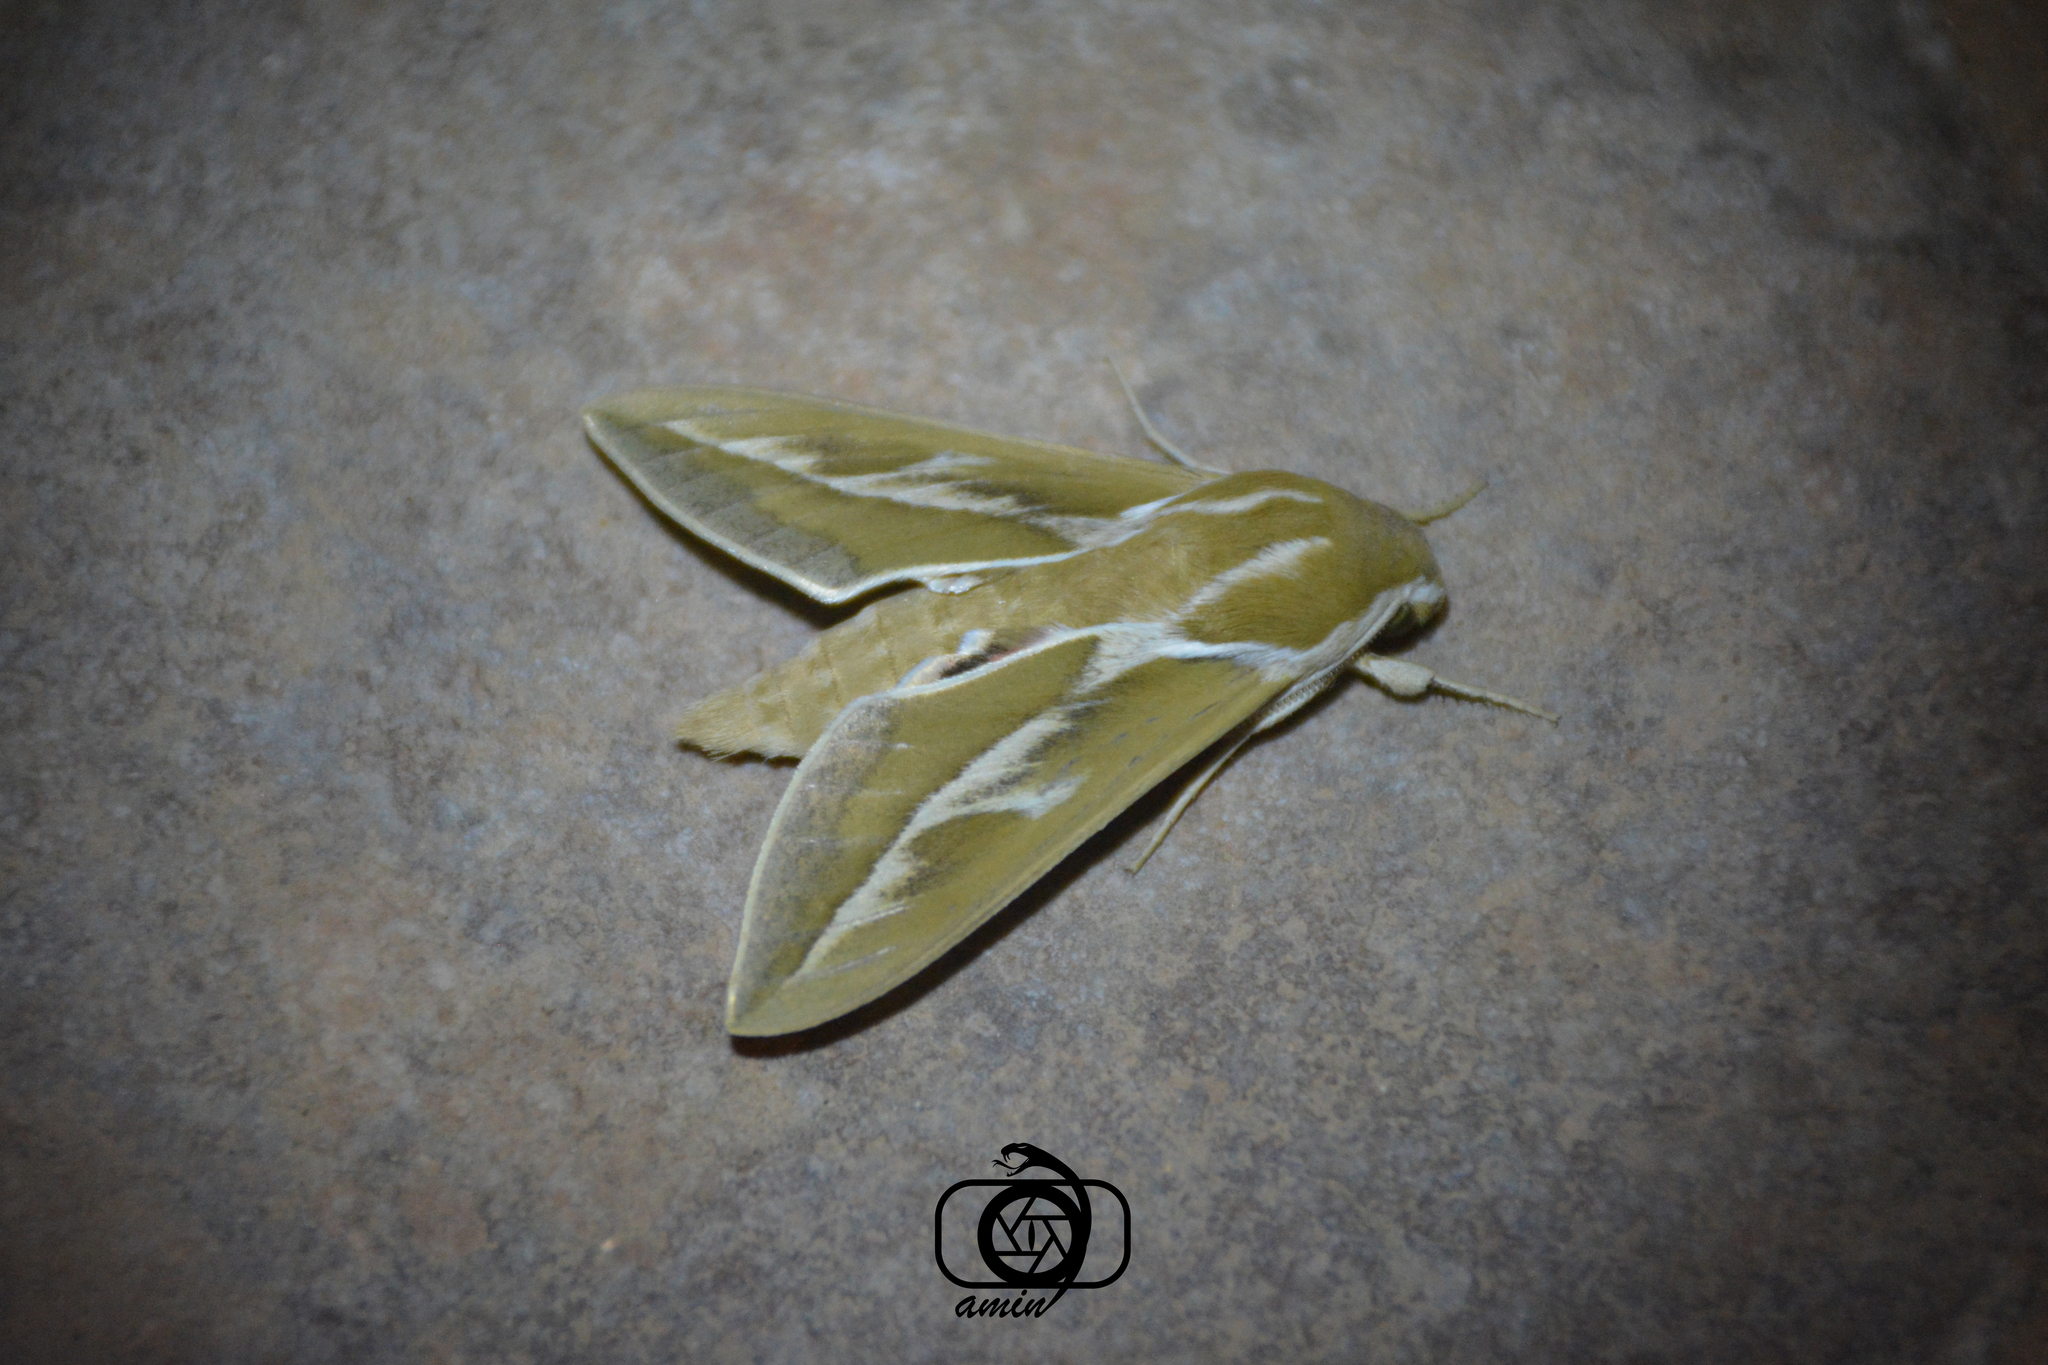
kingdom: Animalia
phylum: Arthropoda
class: Insecta
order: Lepidoptera
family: Sphingidae
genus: Hyles
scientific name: Hyles zygophylli
